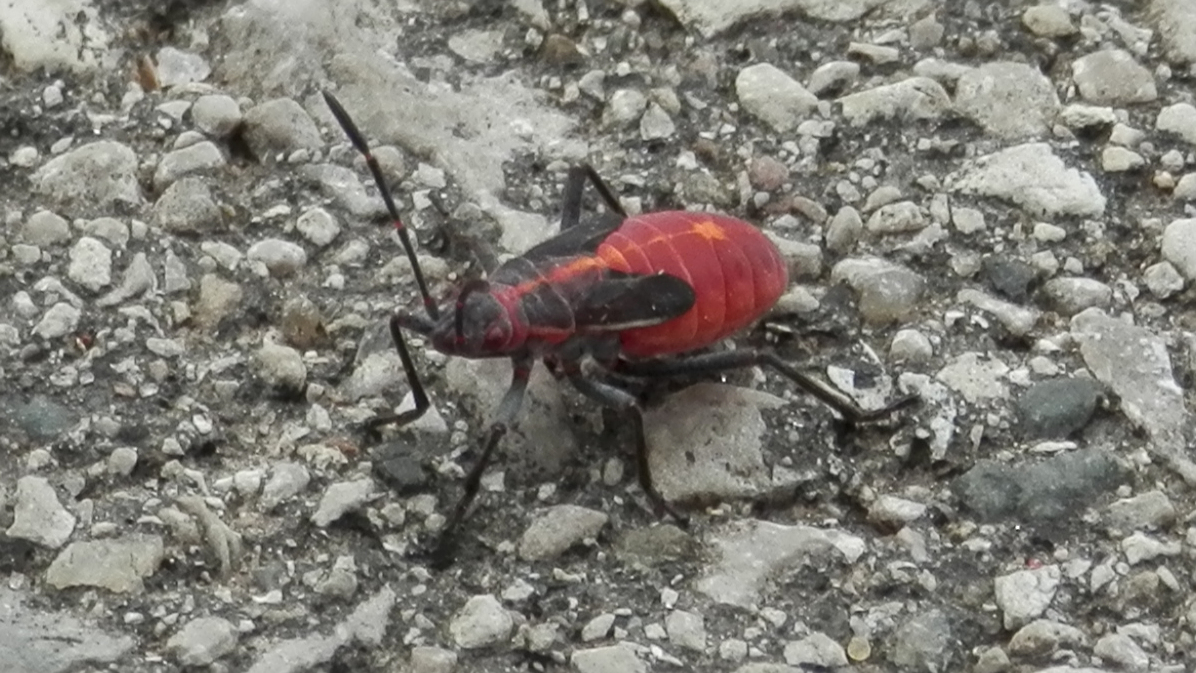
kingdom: Animalia
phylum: Arthropoda
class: Insecta
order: Hemiptera
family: Rhopalidae
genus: Boisea
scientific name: Boisea trivittata
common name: Boxelder bug
